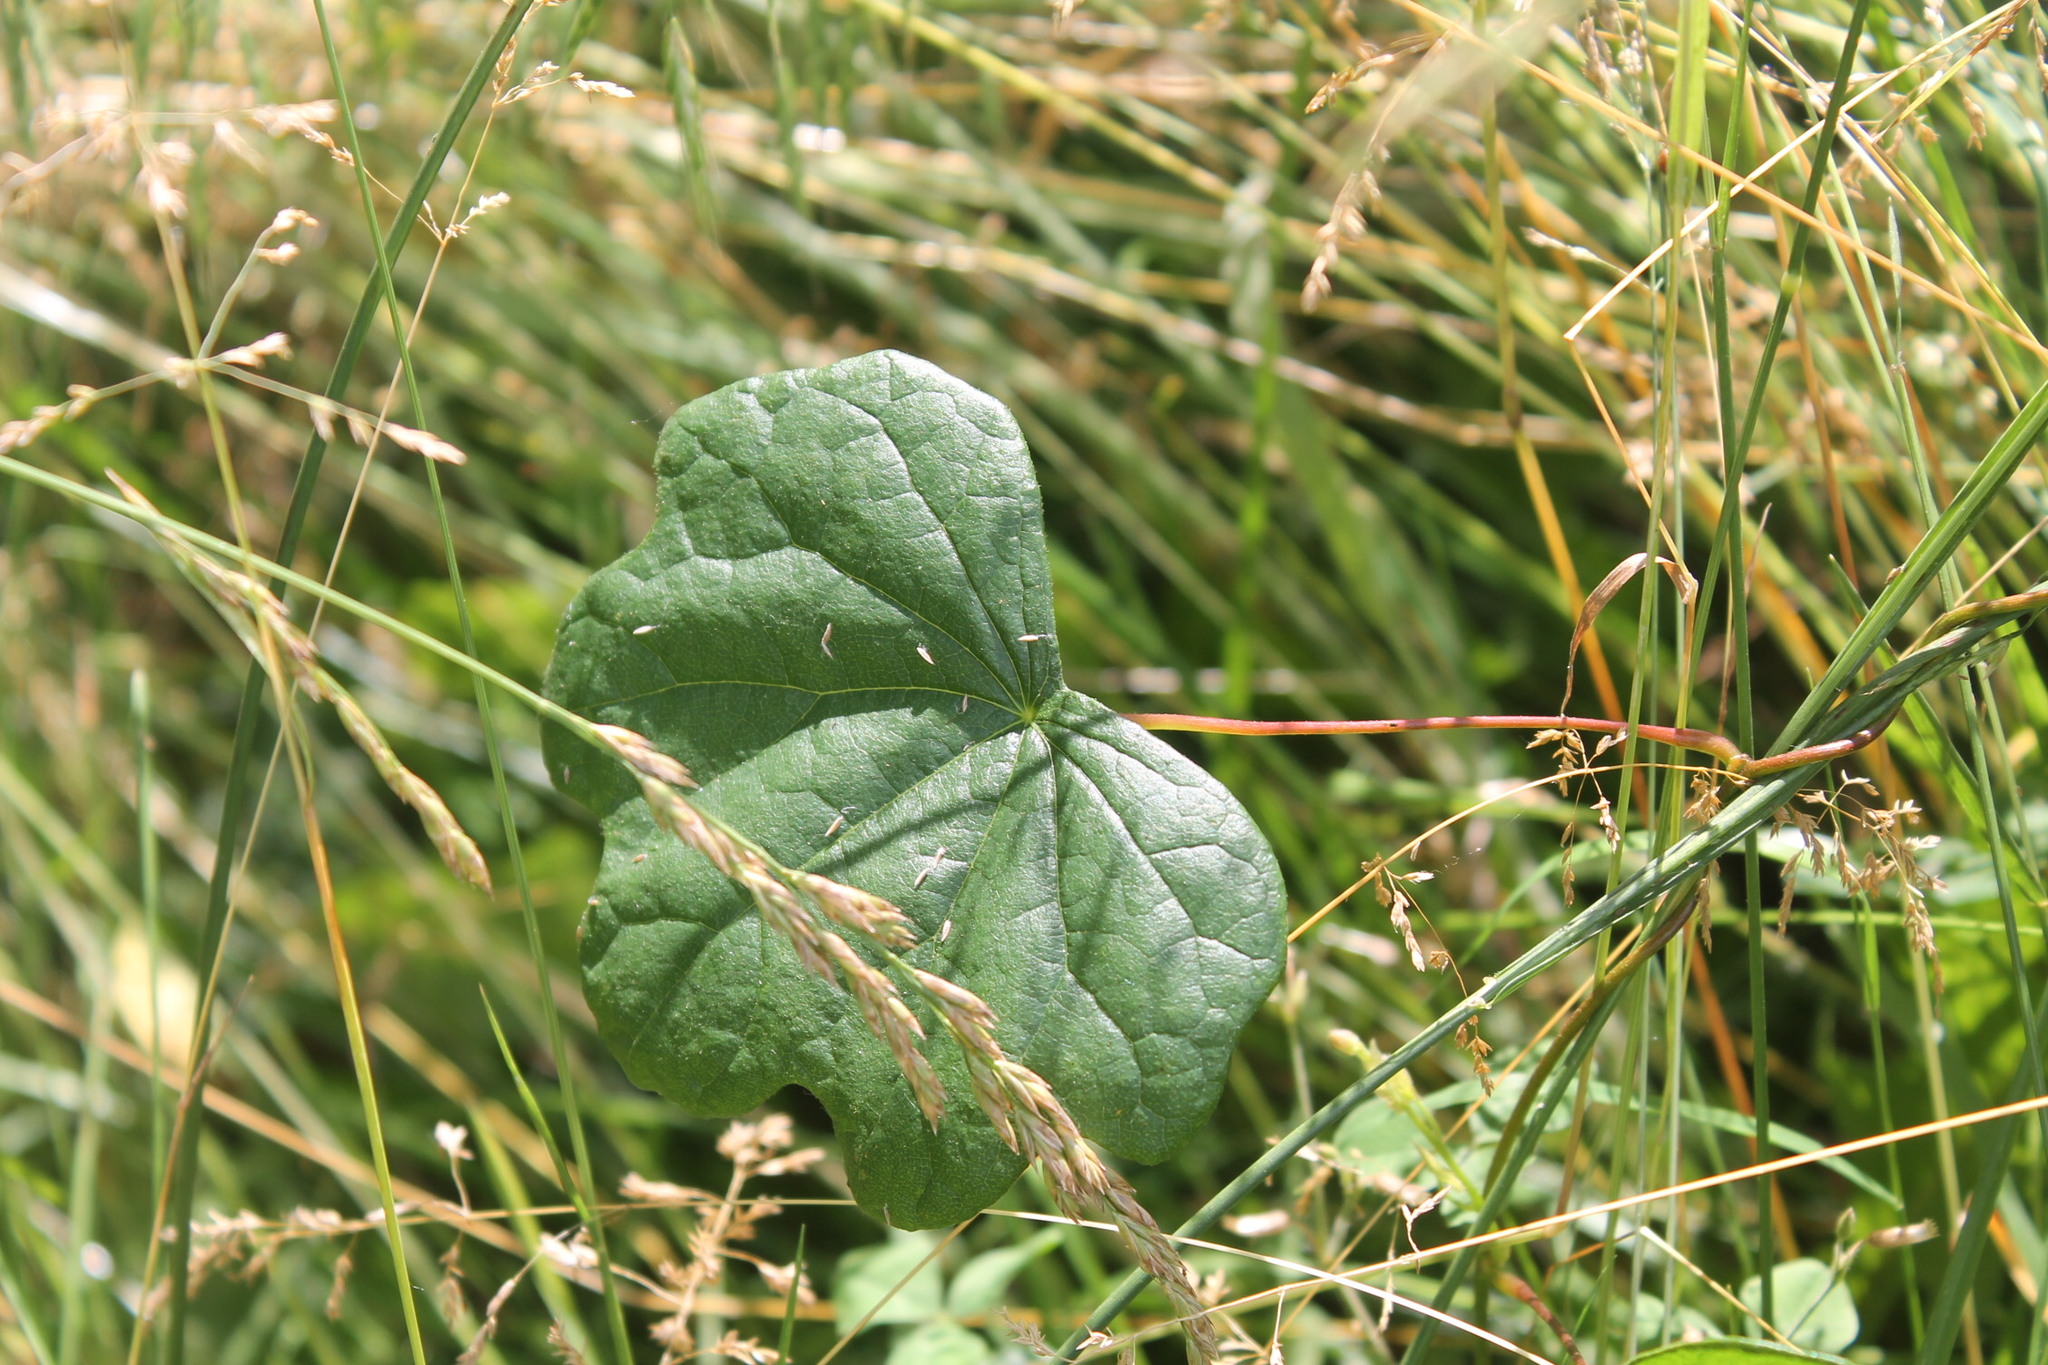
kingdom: Plantae
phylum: Tracheophyta
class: Magnoliopsida
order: Ranunculales
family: Menispermaceae
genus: Menispermum
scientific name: Menispermum canadense
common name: Moonseed
